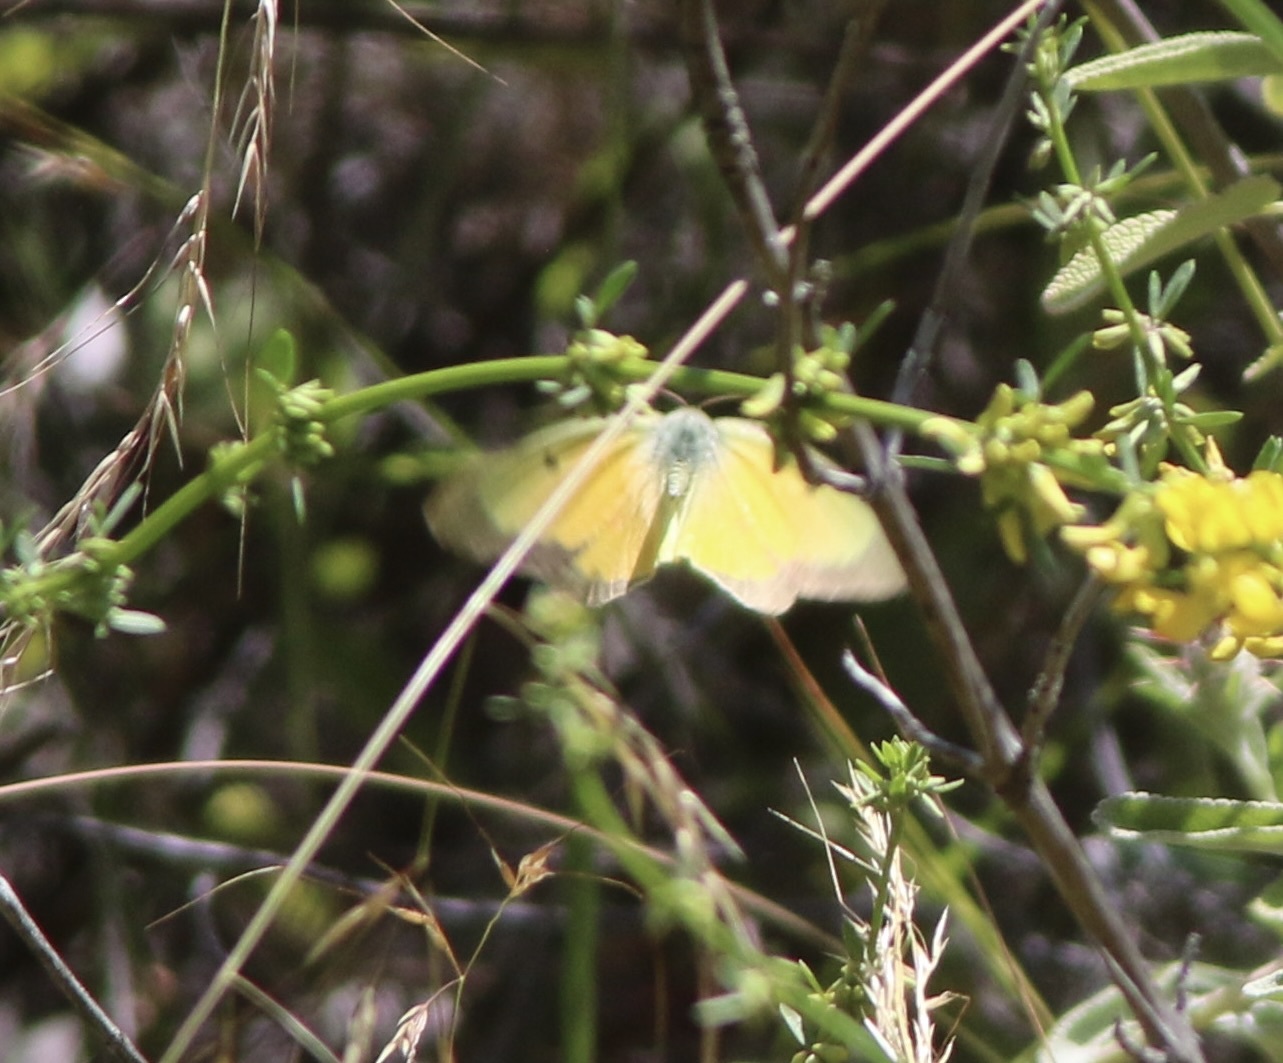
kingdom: Animalia
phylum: Arthropoda
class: Insecta
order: Lepidoptera
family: Pieridae
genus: Colias
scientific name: Colias eurytheme
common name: Alfalfa butterfly
